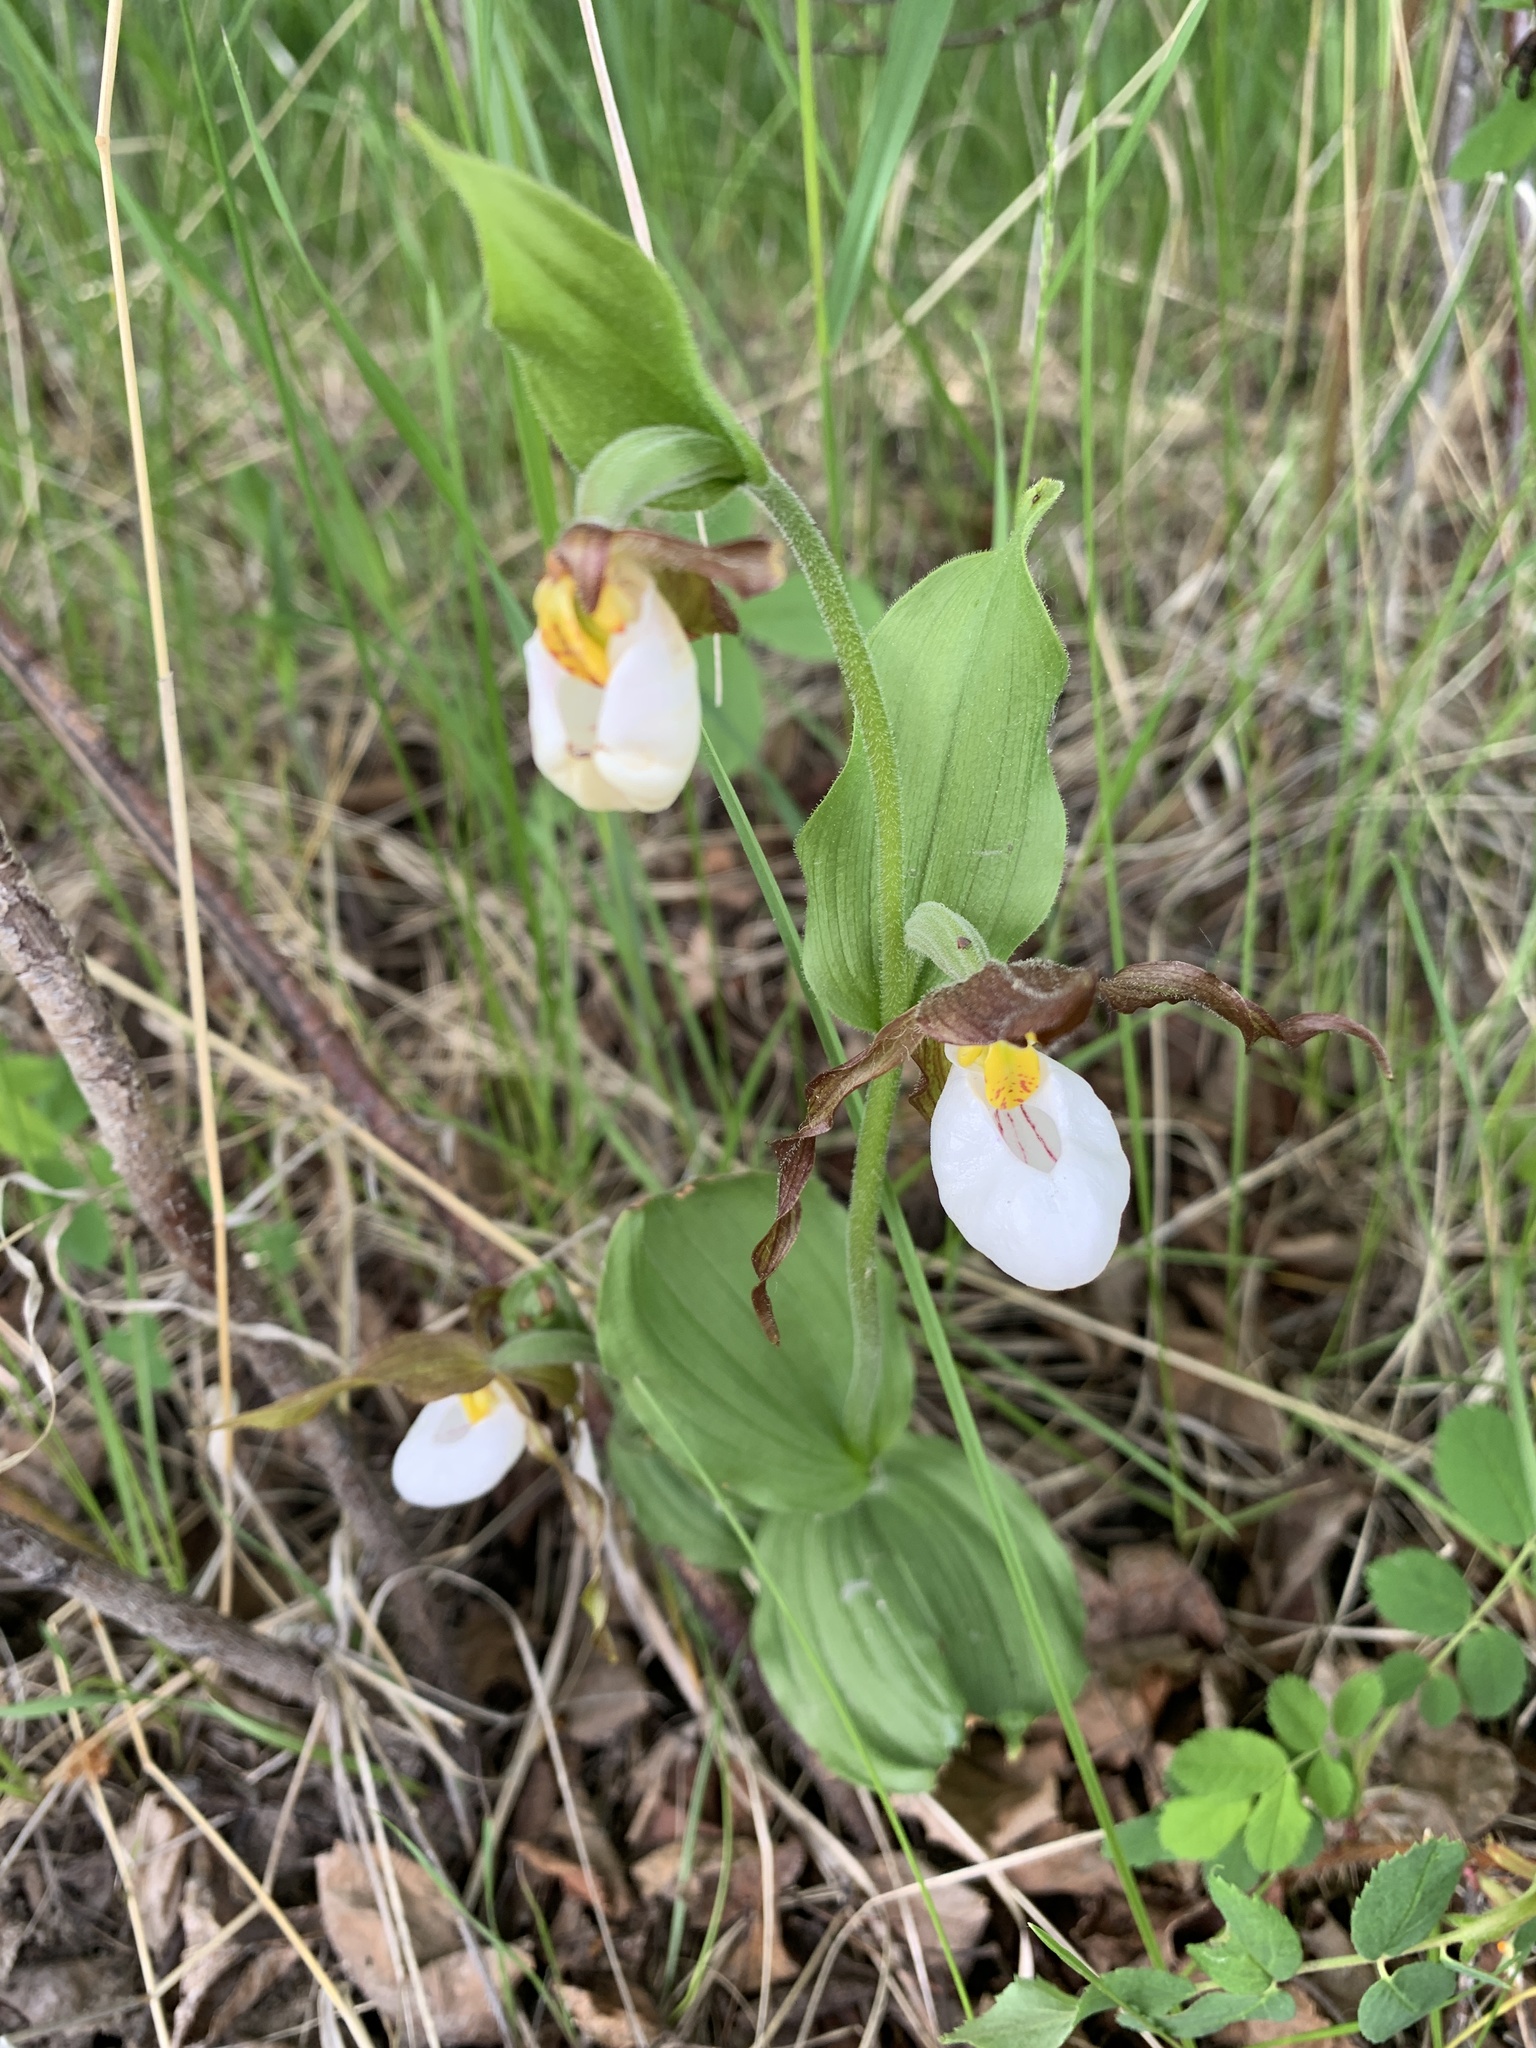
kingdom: Plantae
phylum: Tracheophyta
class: Liliopsida
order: Asparagales
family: Orchidaceae
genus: Cypripedium
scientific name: Cypripedium montanum
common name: Mountain lady's-slipper
